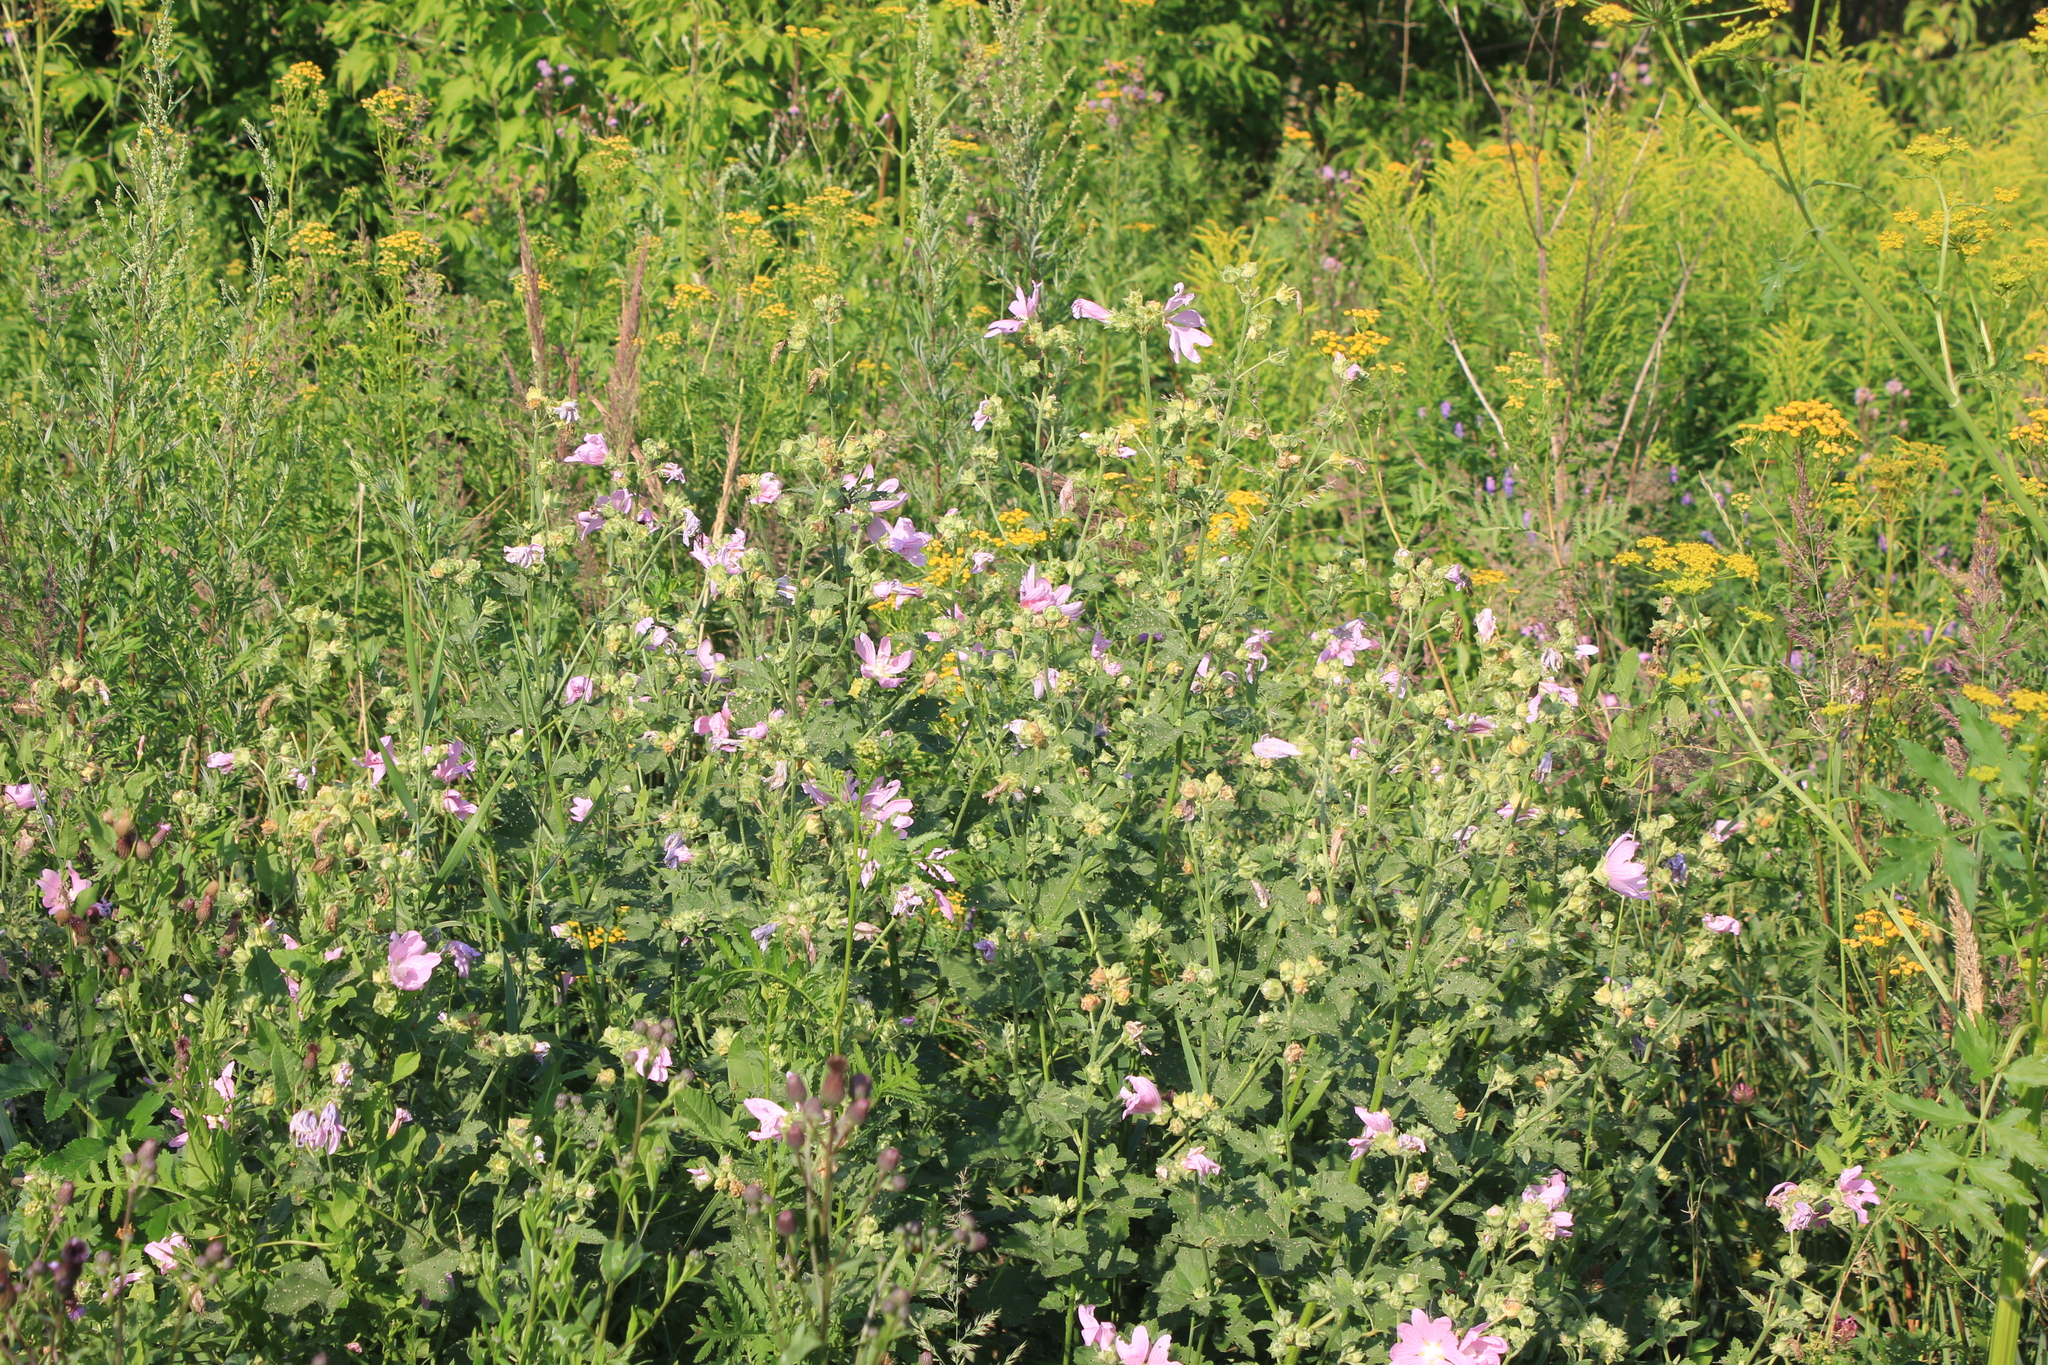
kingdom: Plantae
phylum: Tracheophyta
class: Magnoliopsida
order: Malvales
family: Malvaceae
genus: Malva
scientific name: Malva thuringiaca
